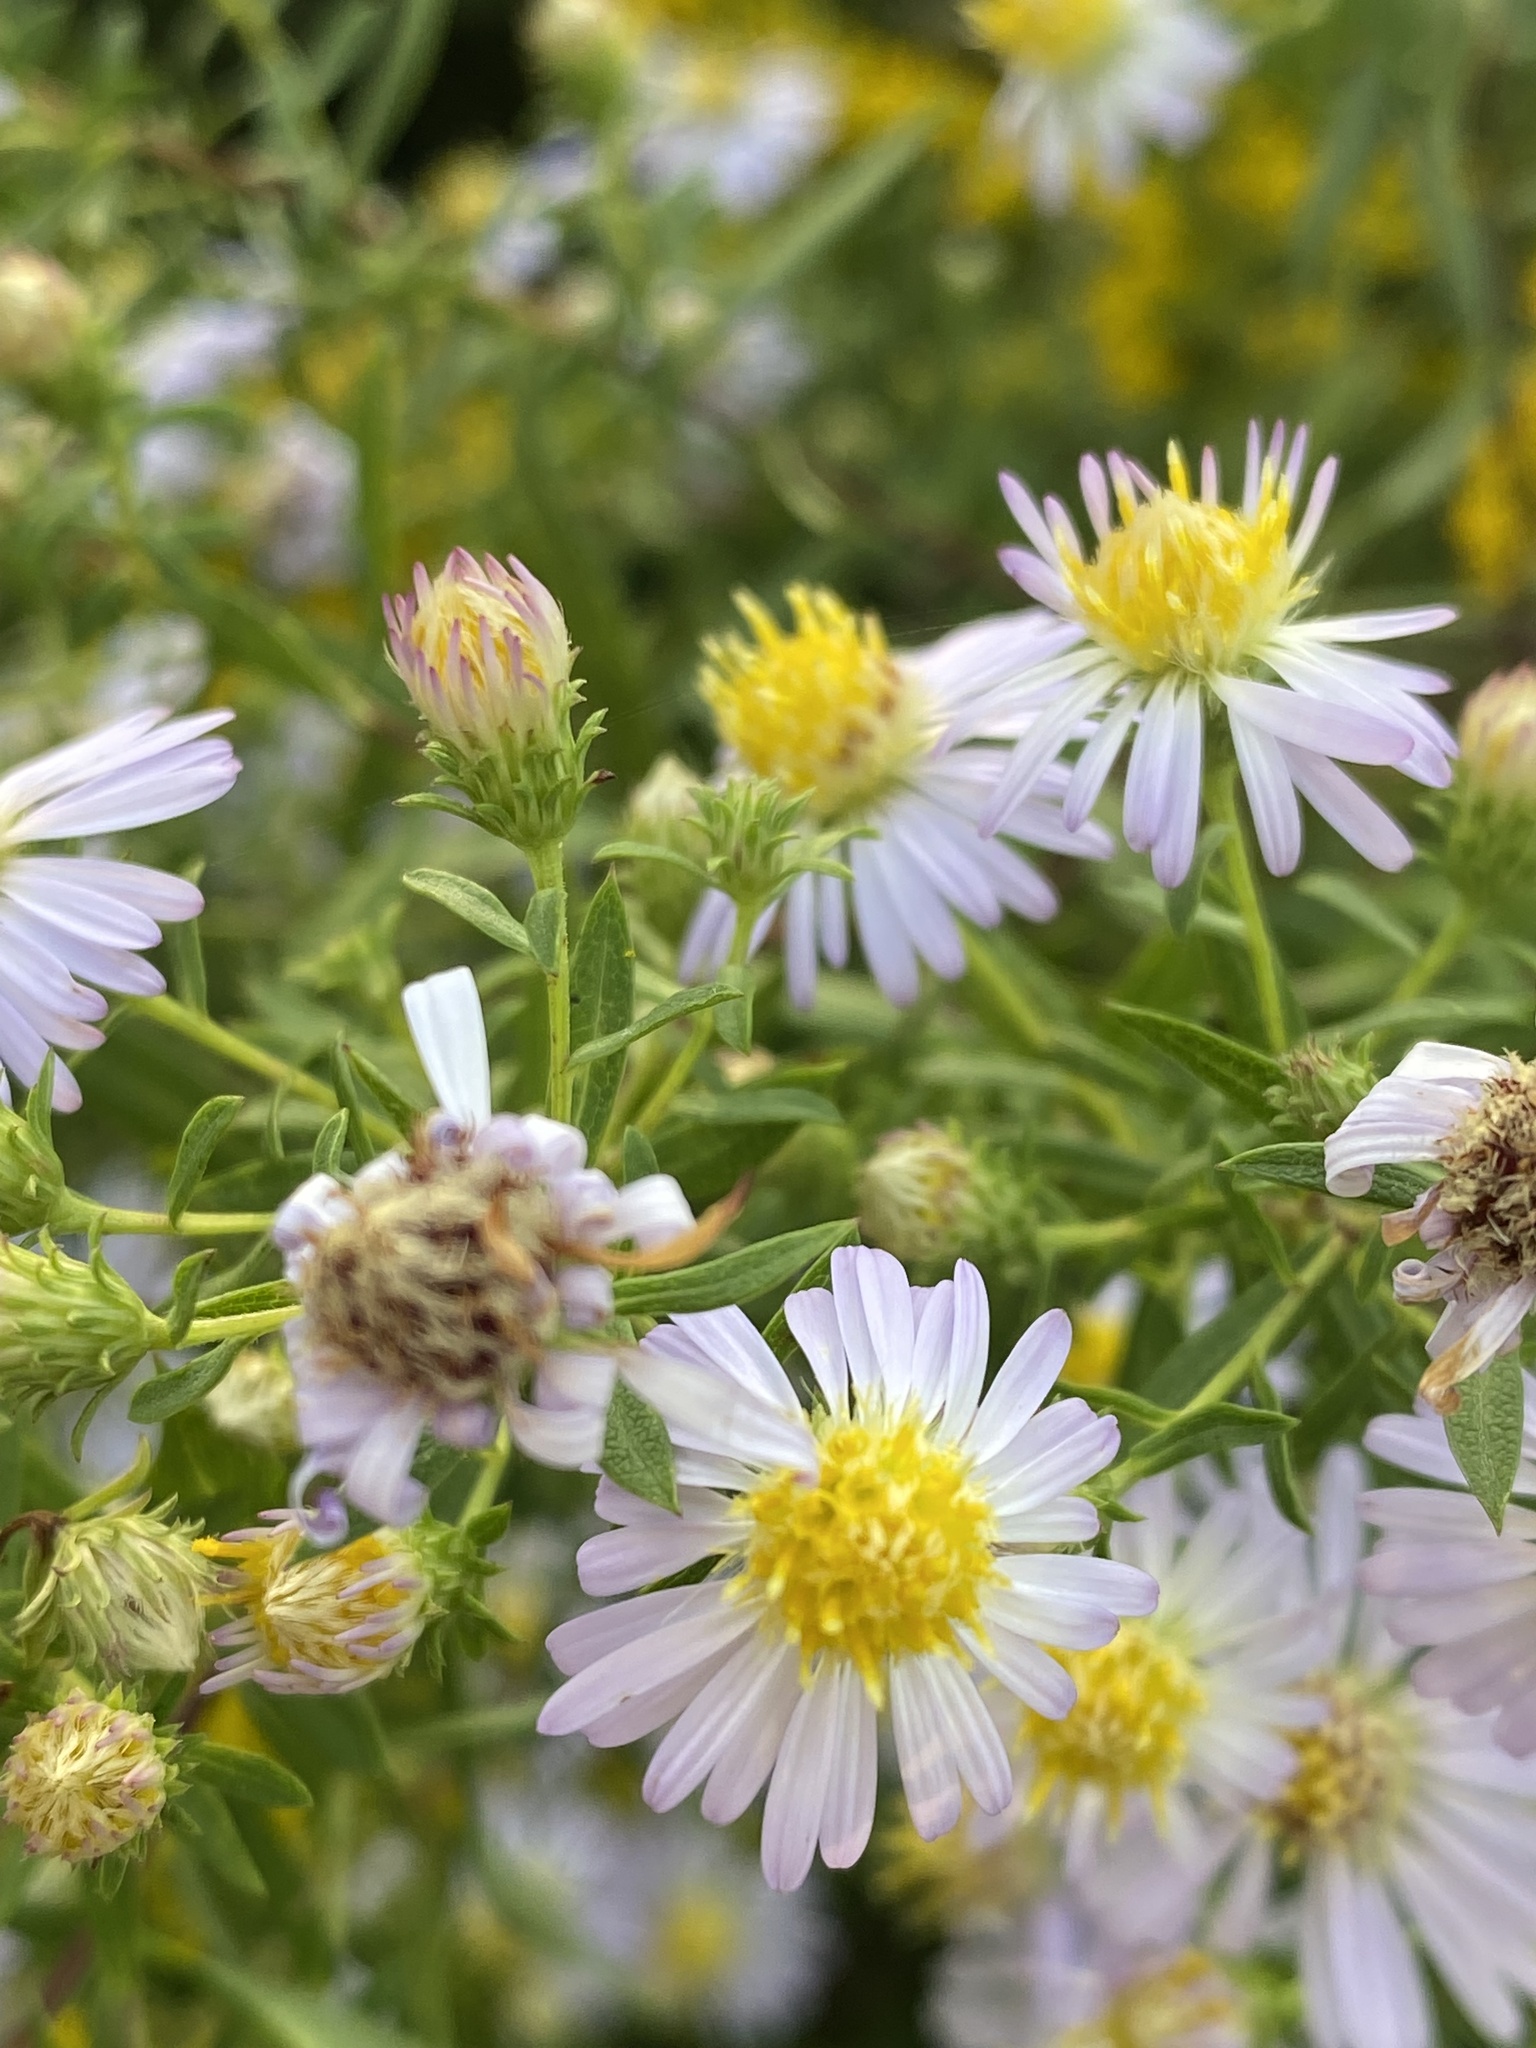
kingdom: Plantae
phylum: Tracheophyta
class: Magnoliopsida
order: Asterales
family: Asteraceae
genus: Symphyotrichum
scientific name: Symphyotrichum praealtum
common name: Willow aster
